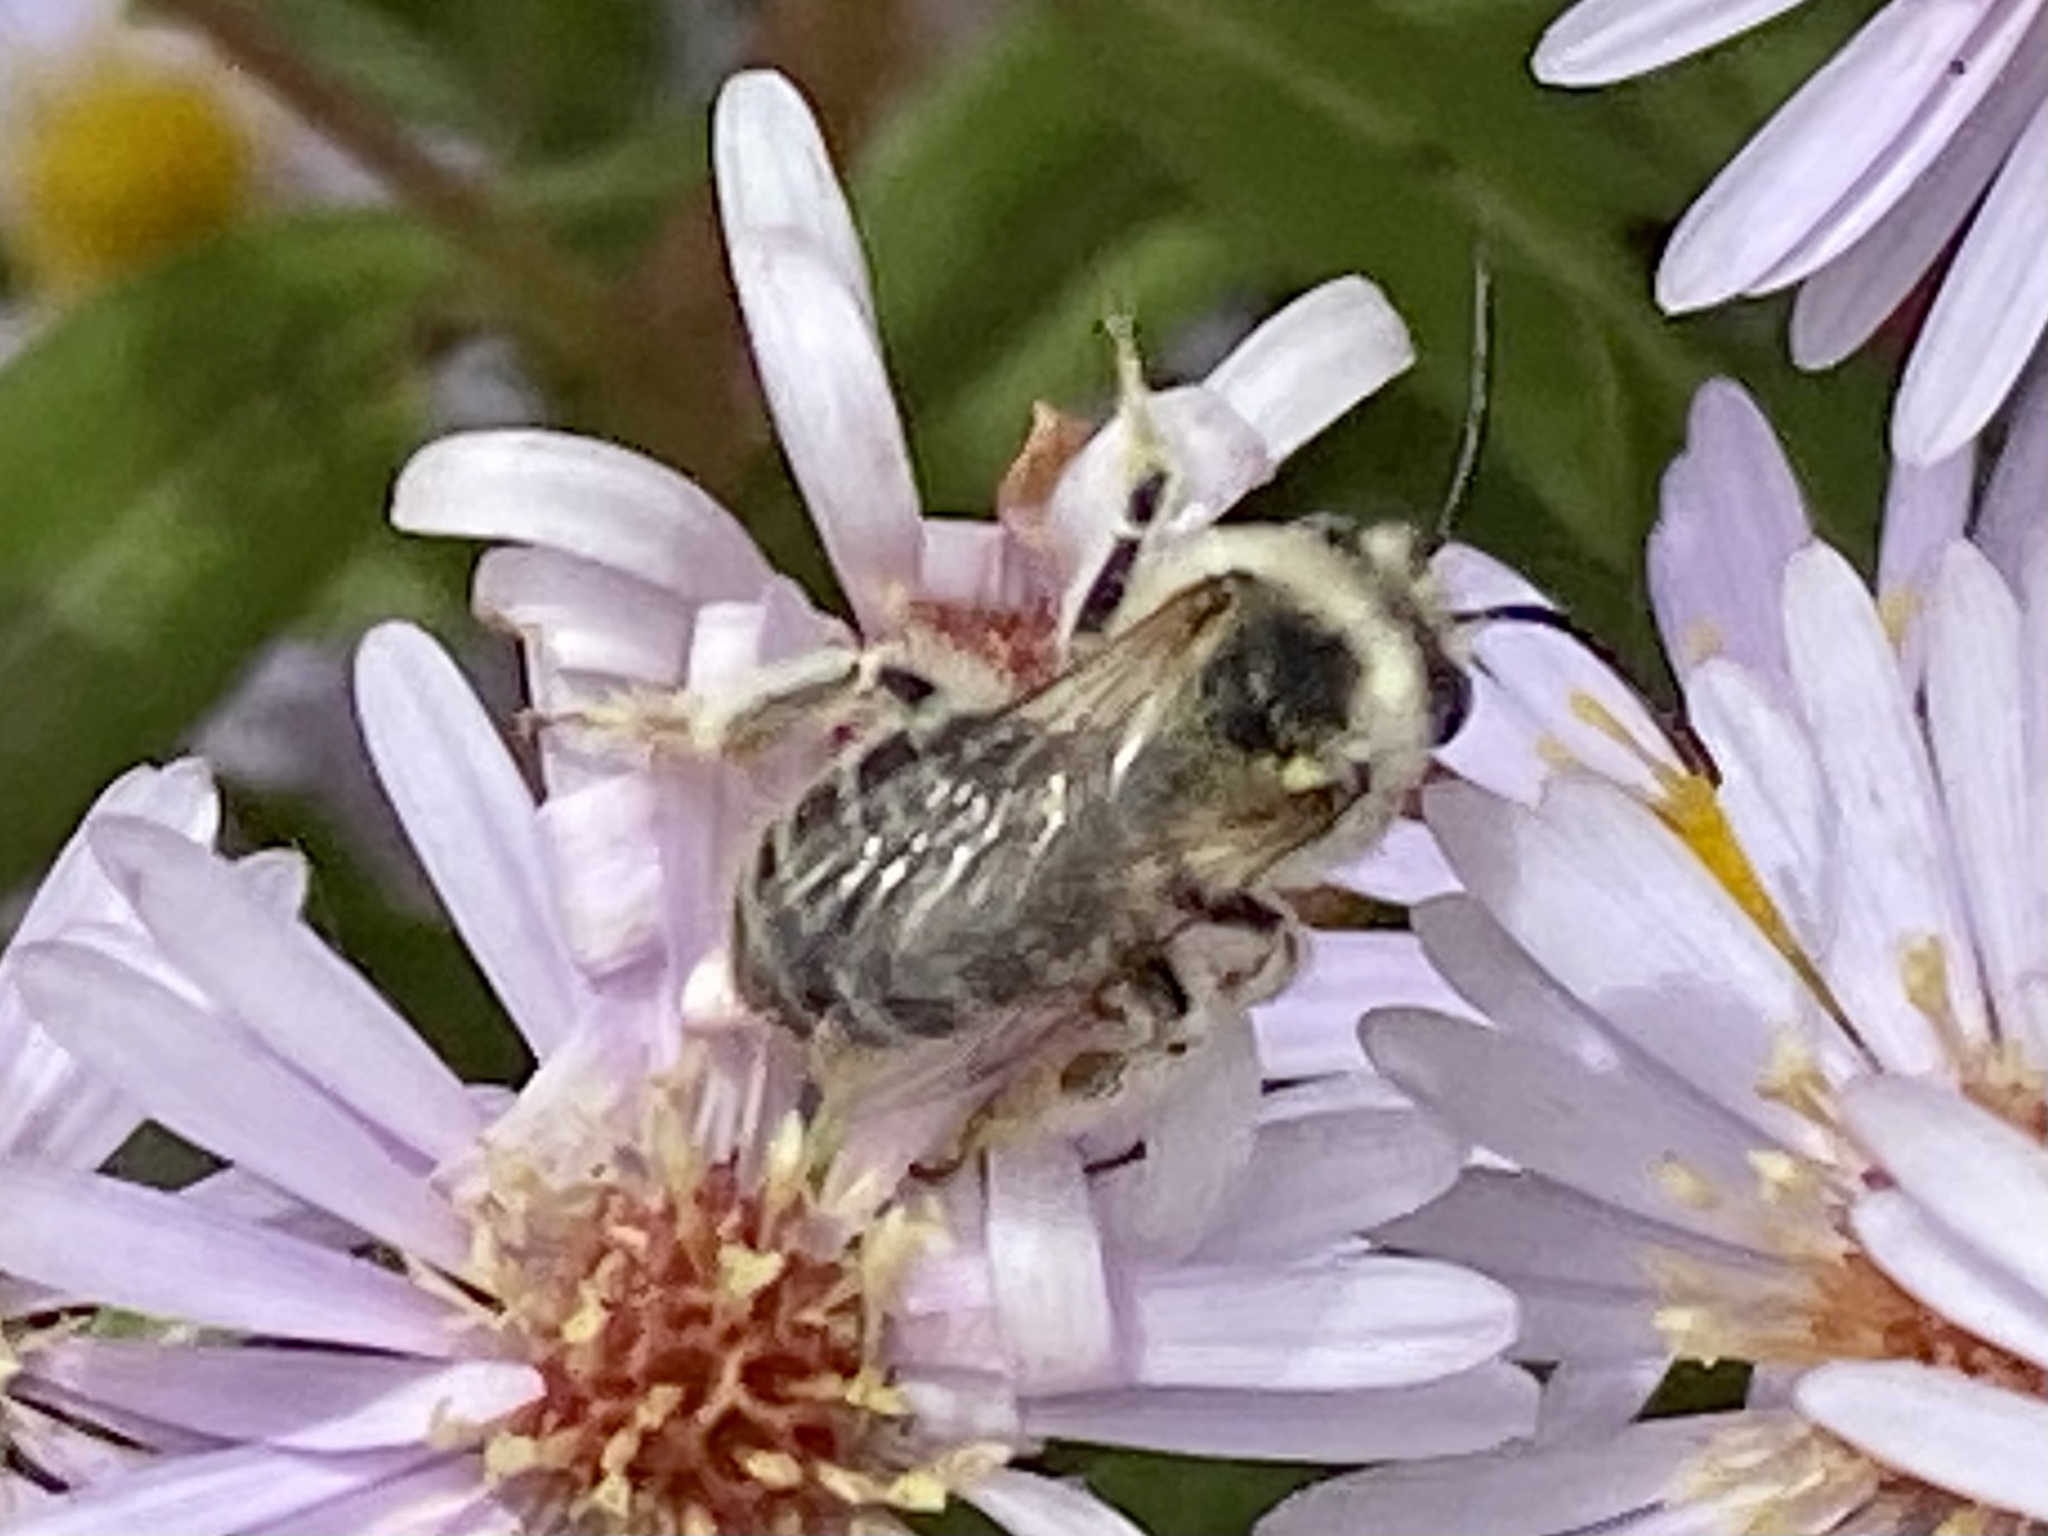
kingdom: Animalia
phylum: Arthropoda
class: Insecta
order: Hymenoptera
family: Apidae
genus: Melissodes
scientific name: Melissodes druriellus
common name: Drury's long-horned bee
